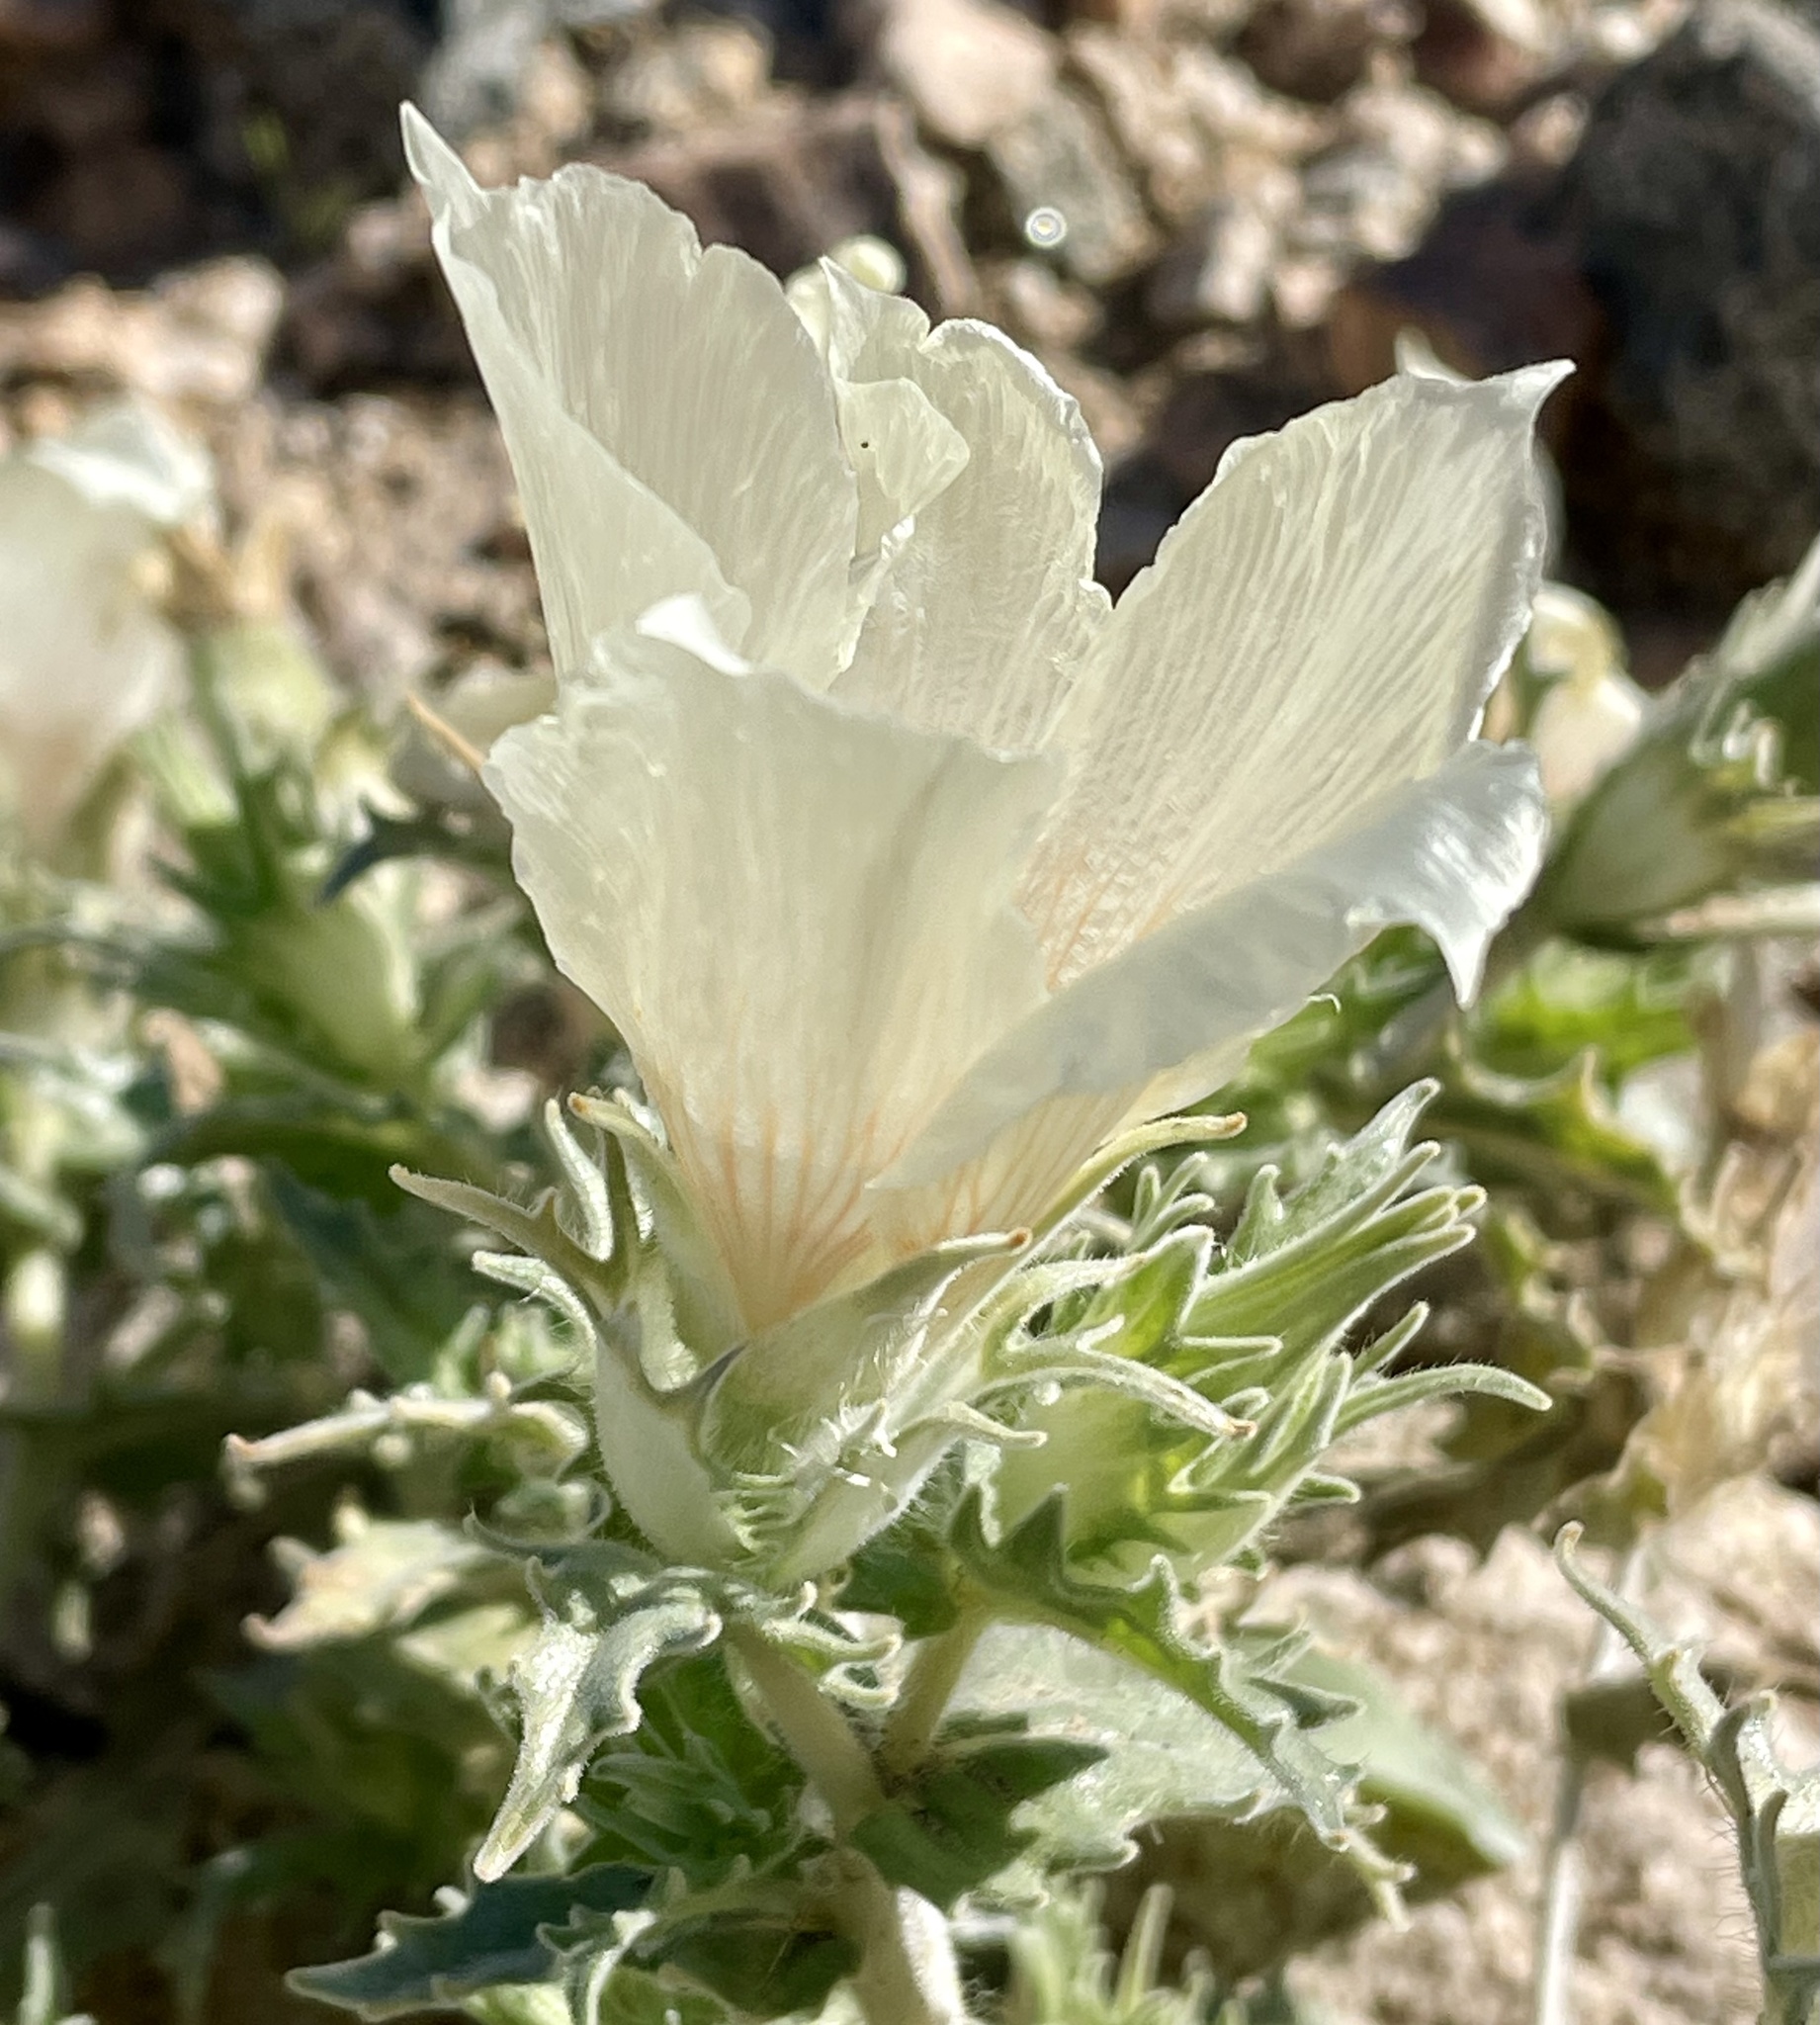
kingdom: Plantae
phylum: Tracheophyta
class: Magnoliopsida
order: Cornales
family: Loasaceae
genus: Mentzelia
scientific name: Mentzelia involucrata
